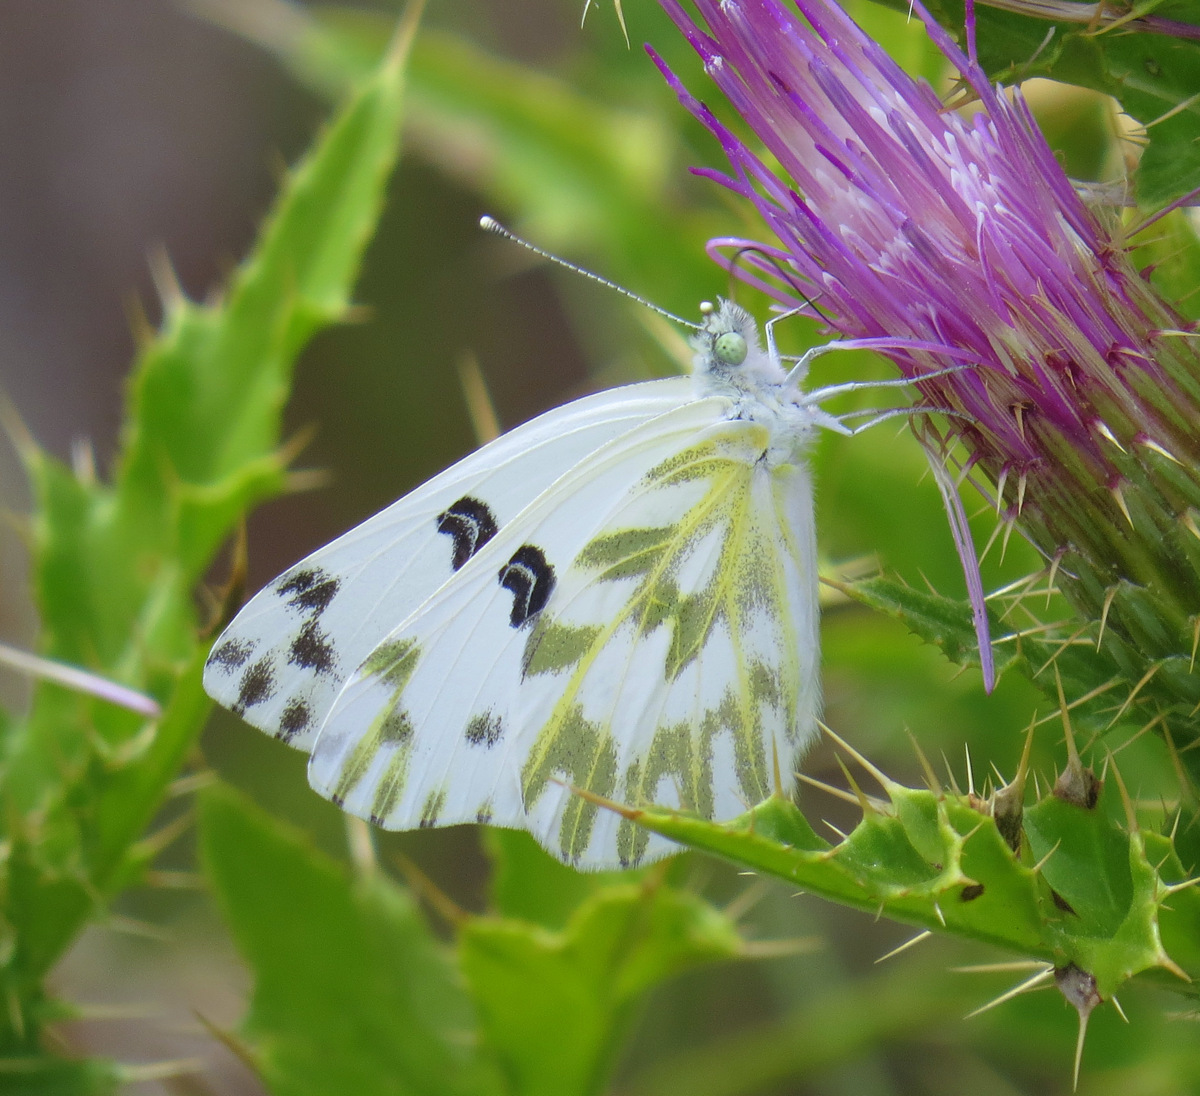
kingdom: Animalia
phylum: Arthropoda
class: Insecta
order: Lepidoptera
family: Pieridae
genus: Pontia
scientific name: Pontia beckerii
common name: Becker's white
